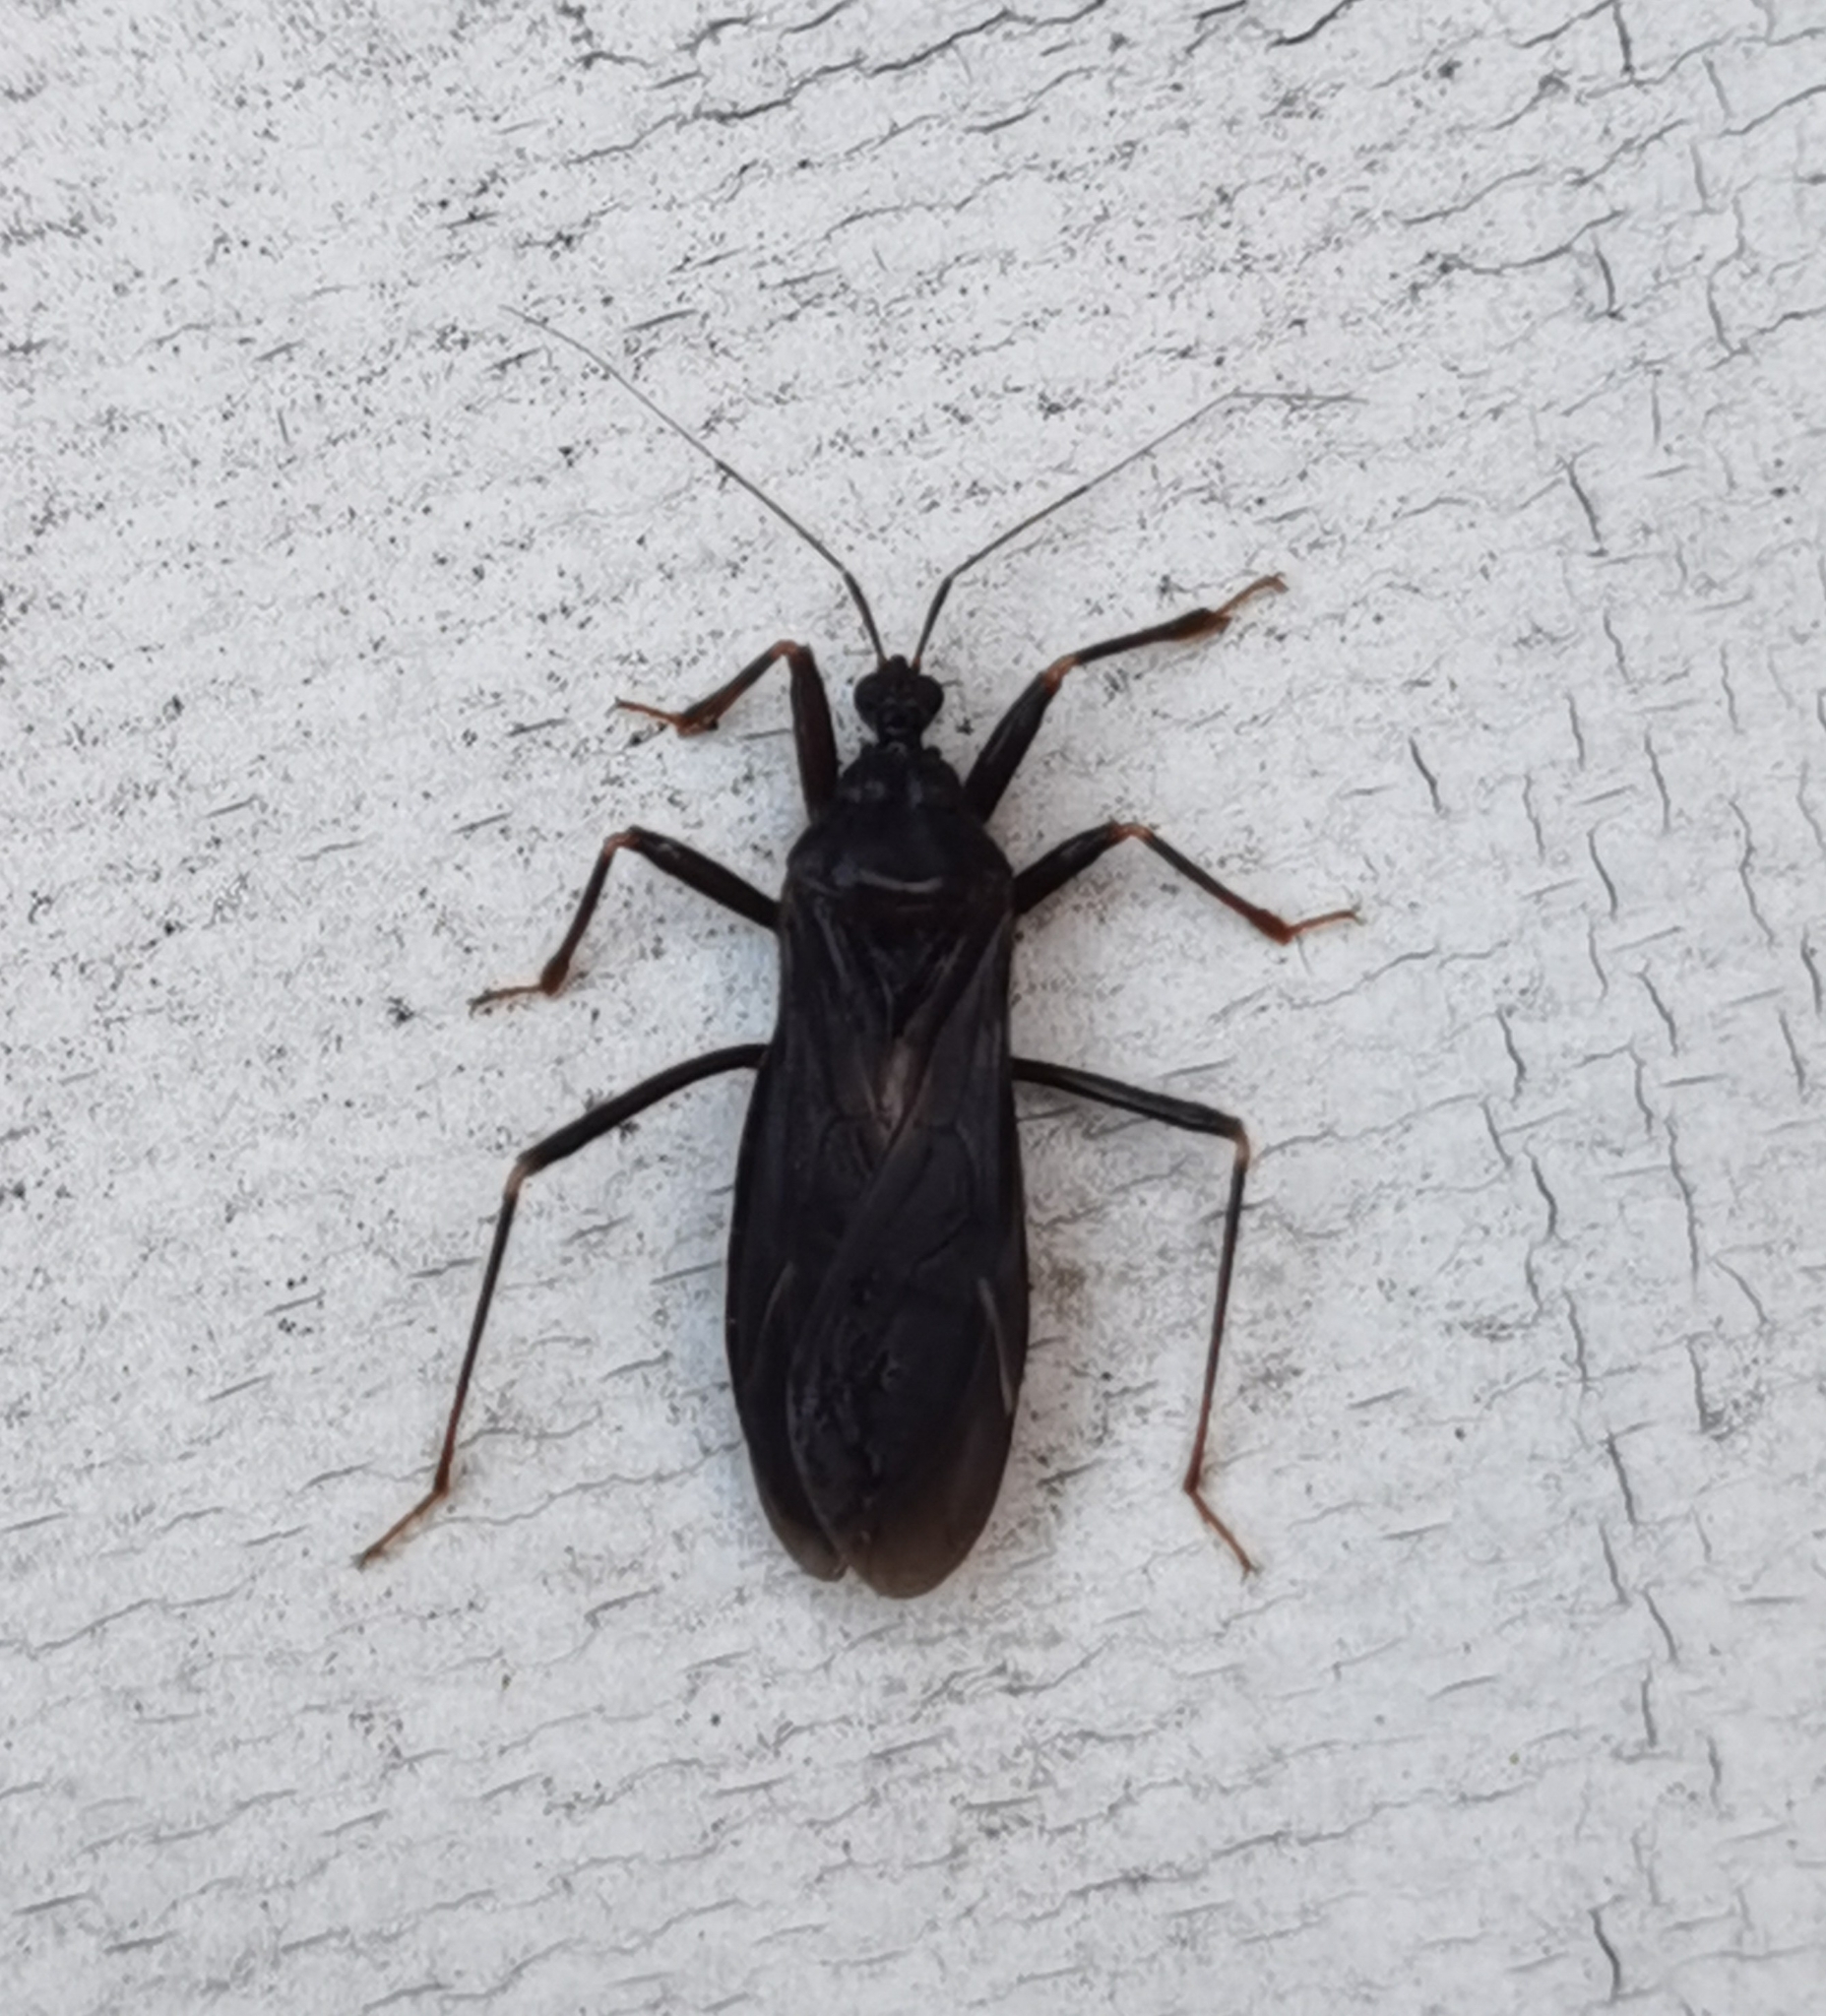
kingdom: Animalia
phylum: Arthropoda
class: Insecta
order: Hemiptera
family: Reduviidae
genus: Reduvius
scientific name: Reduvius personatus
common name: Masked hunter
